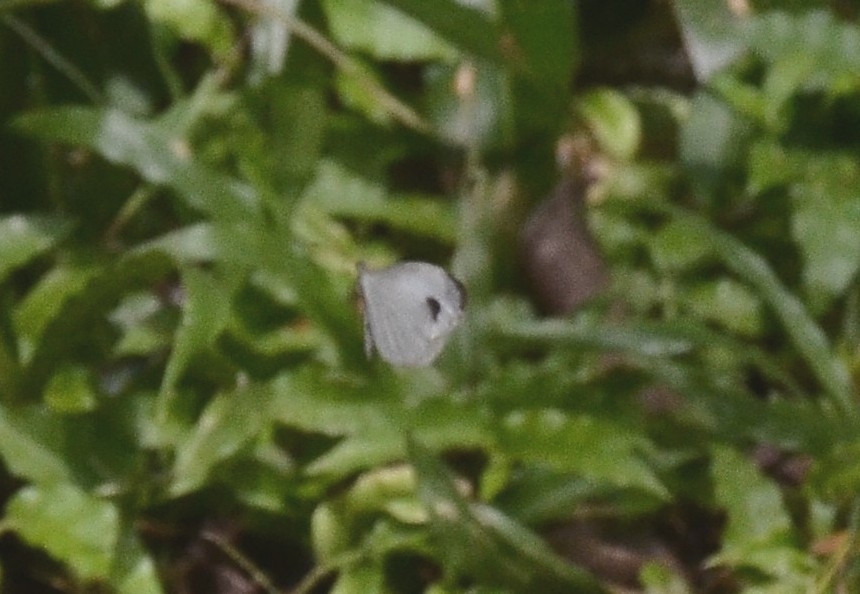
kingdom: Animalia
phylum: Arthropoda
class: Insecta
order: Lepidoptera
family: Pieridae
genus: Leptosia
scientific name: Leptosia nina
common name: Psyche
